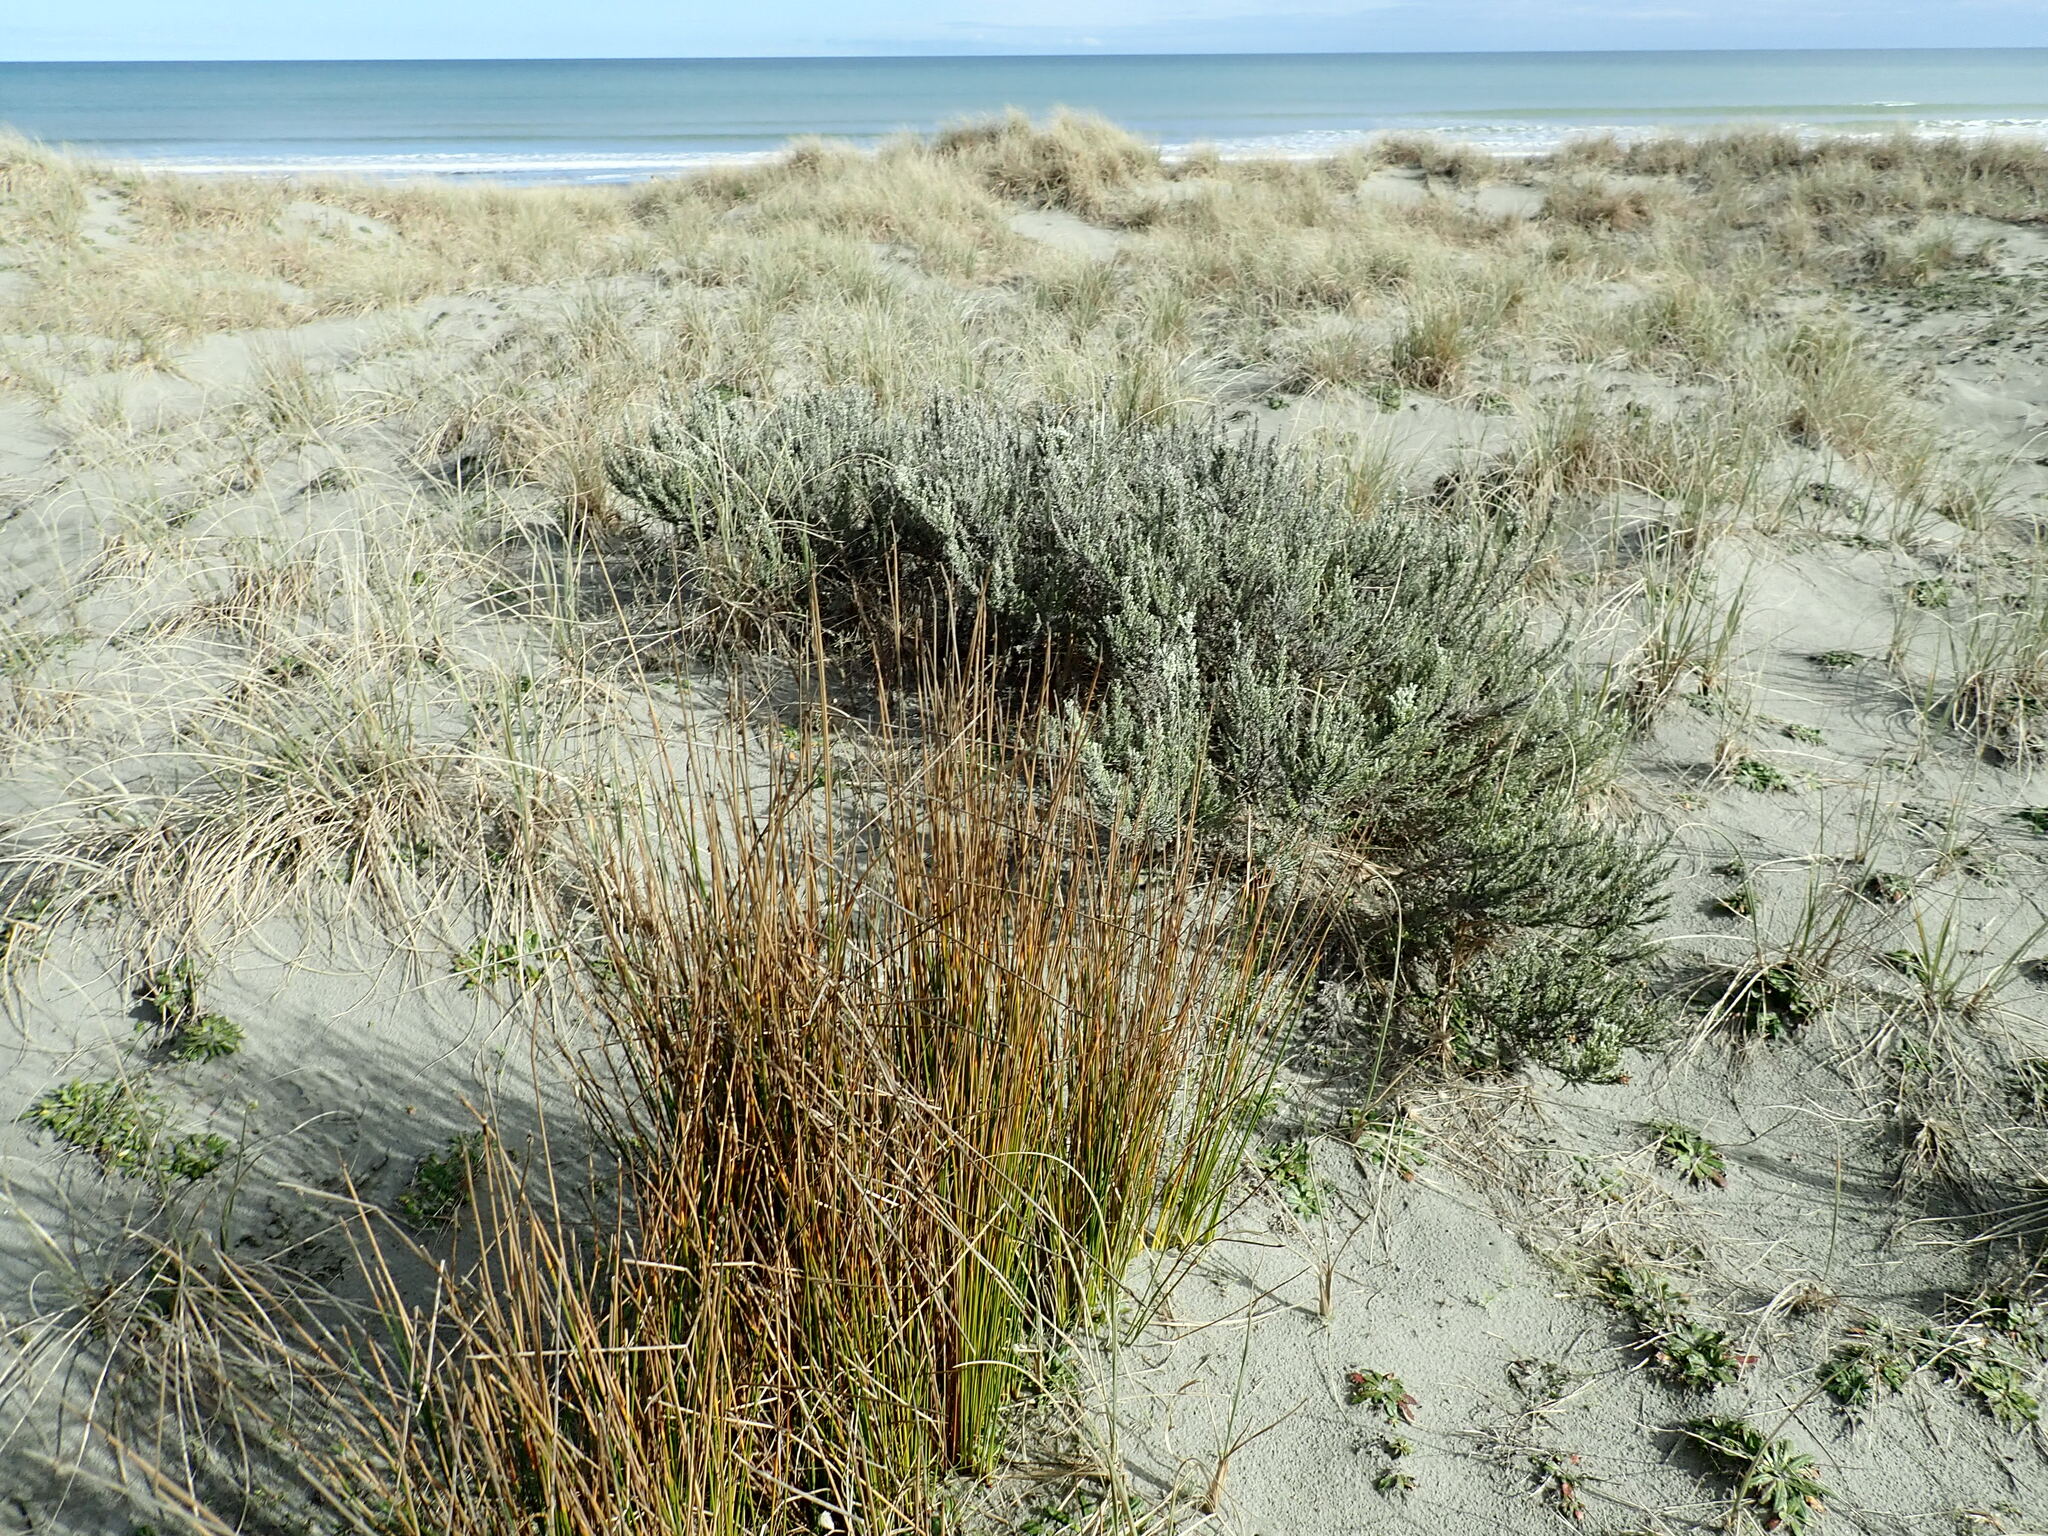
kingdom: Plantae
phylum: Tracheophyta
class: Magnoliopsida
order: Asterales
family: Asteraceae
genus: Ozothamnus
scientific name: Ozothamnus leptophyllus
